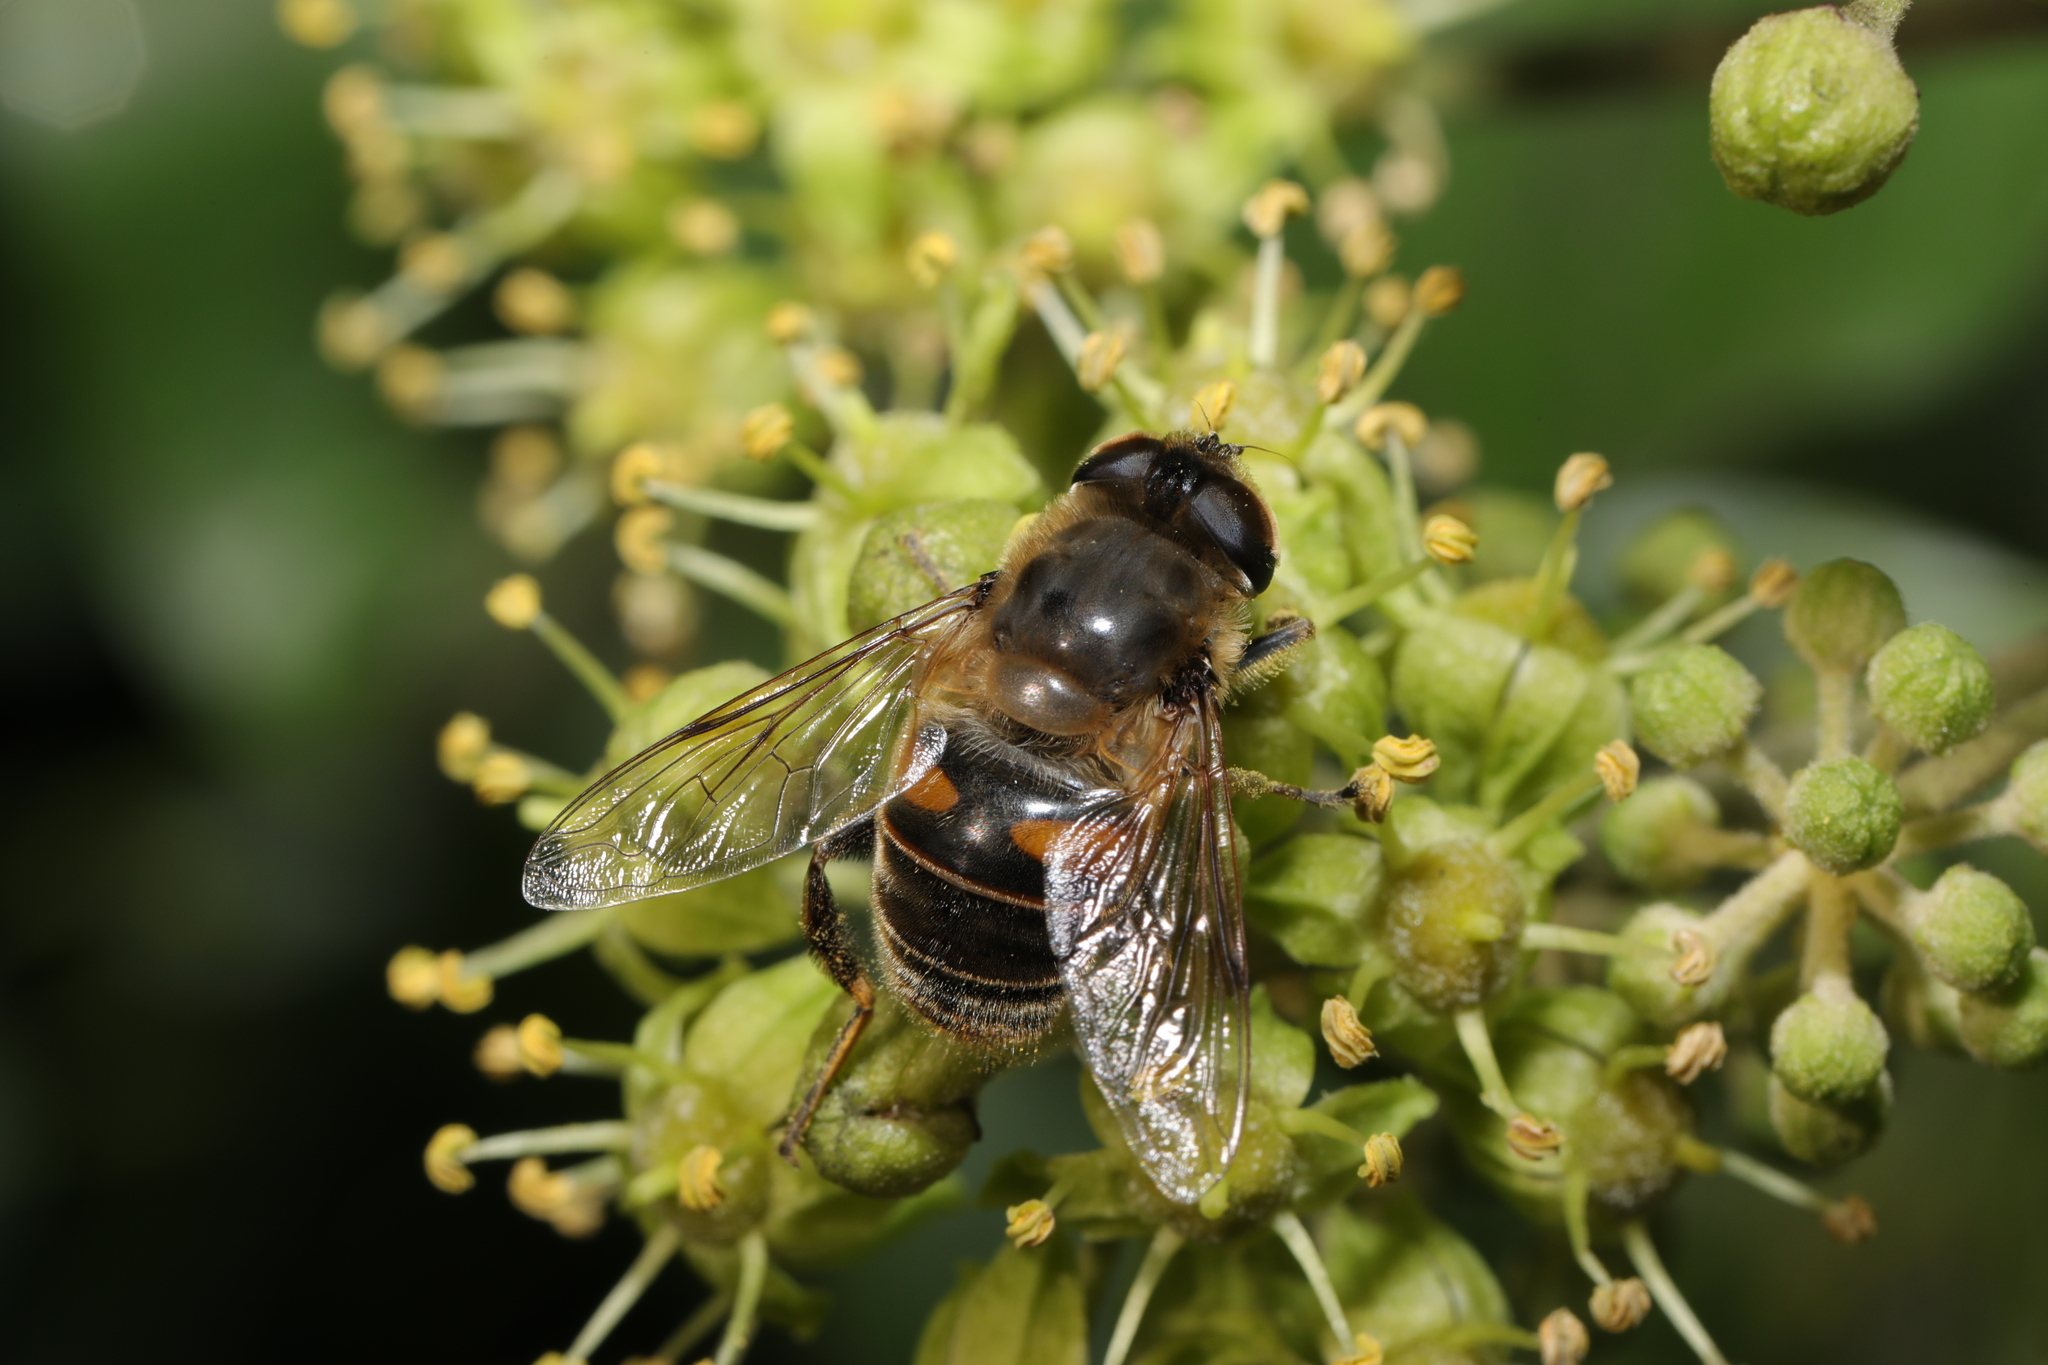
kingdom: Animalia
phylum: Arthropoda
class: Insecta
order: Diptera
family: Syrphidae
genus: Eristalis
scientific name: Eristalis tenax
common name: Drone fly
